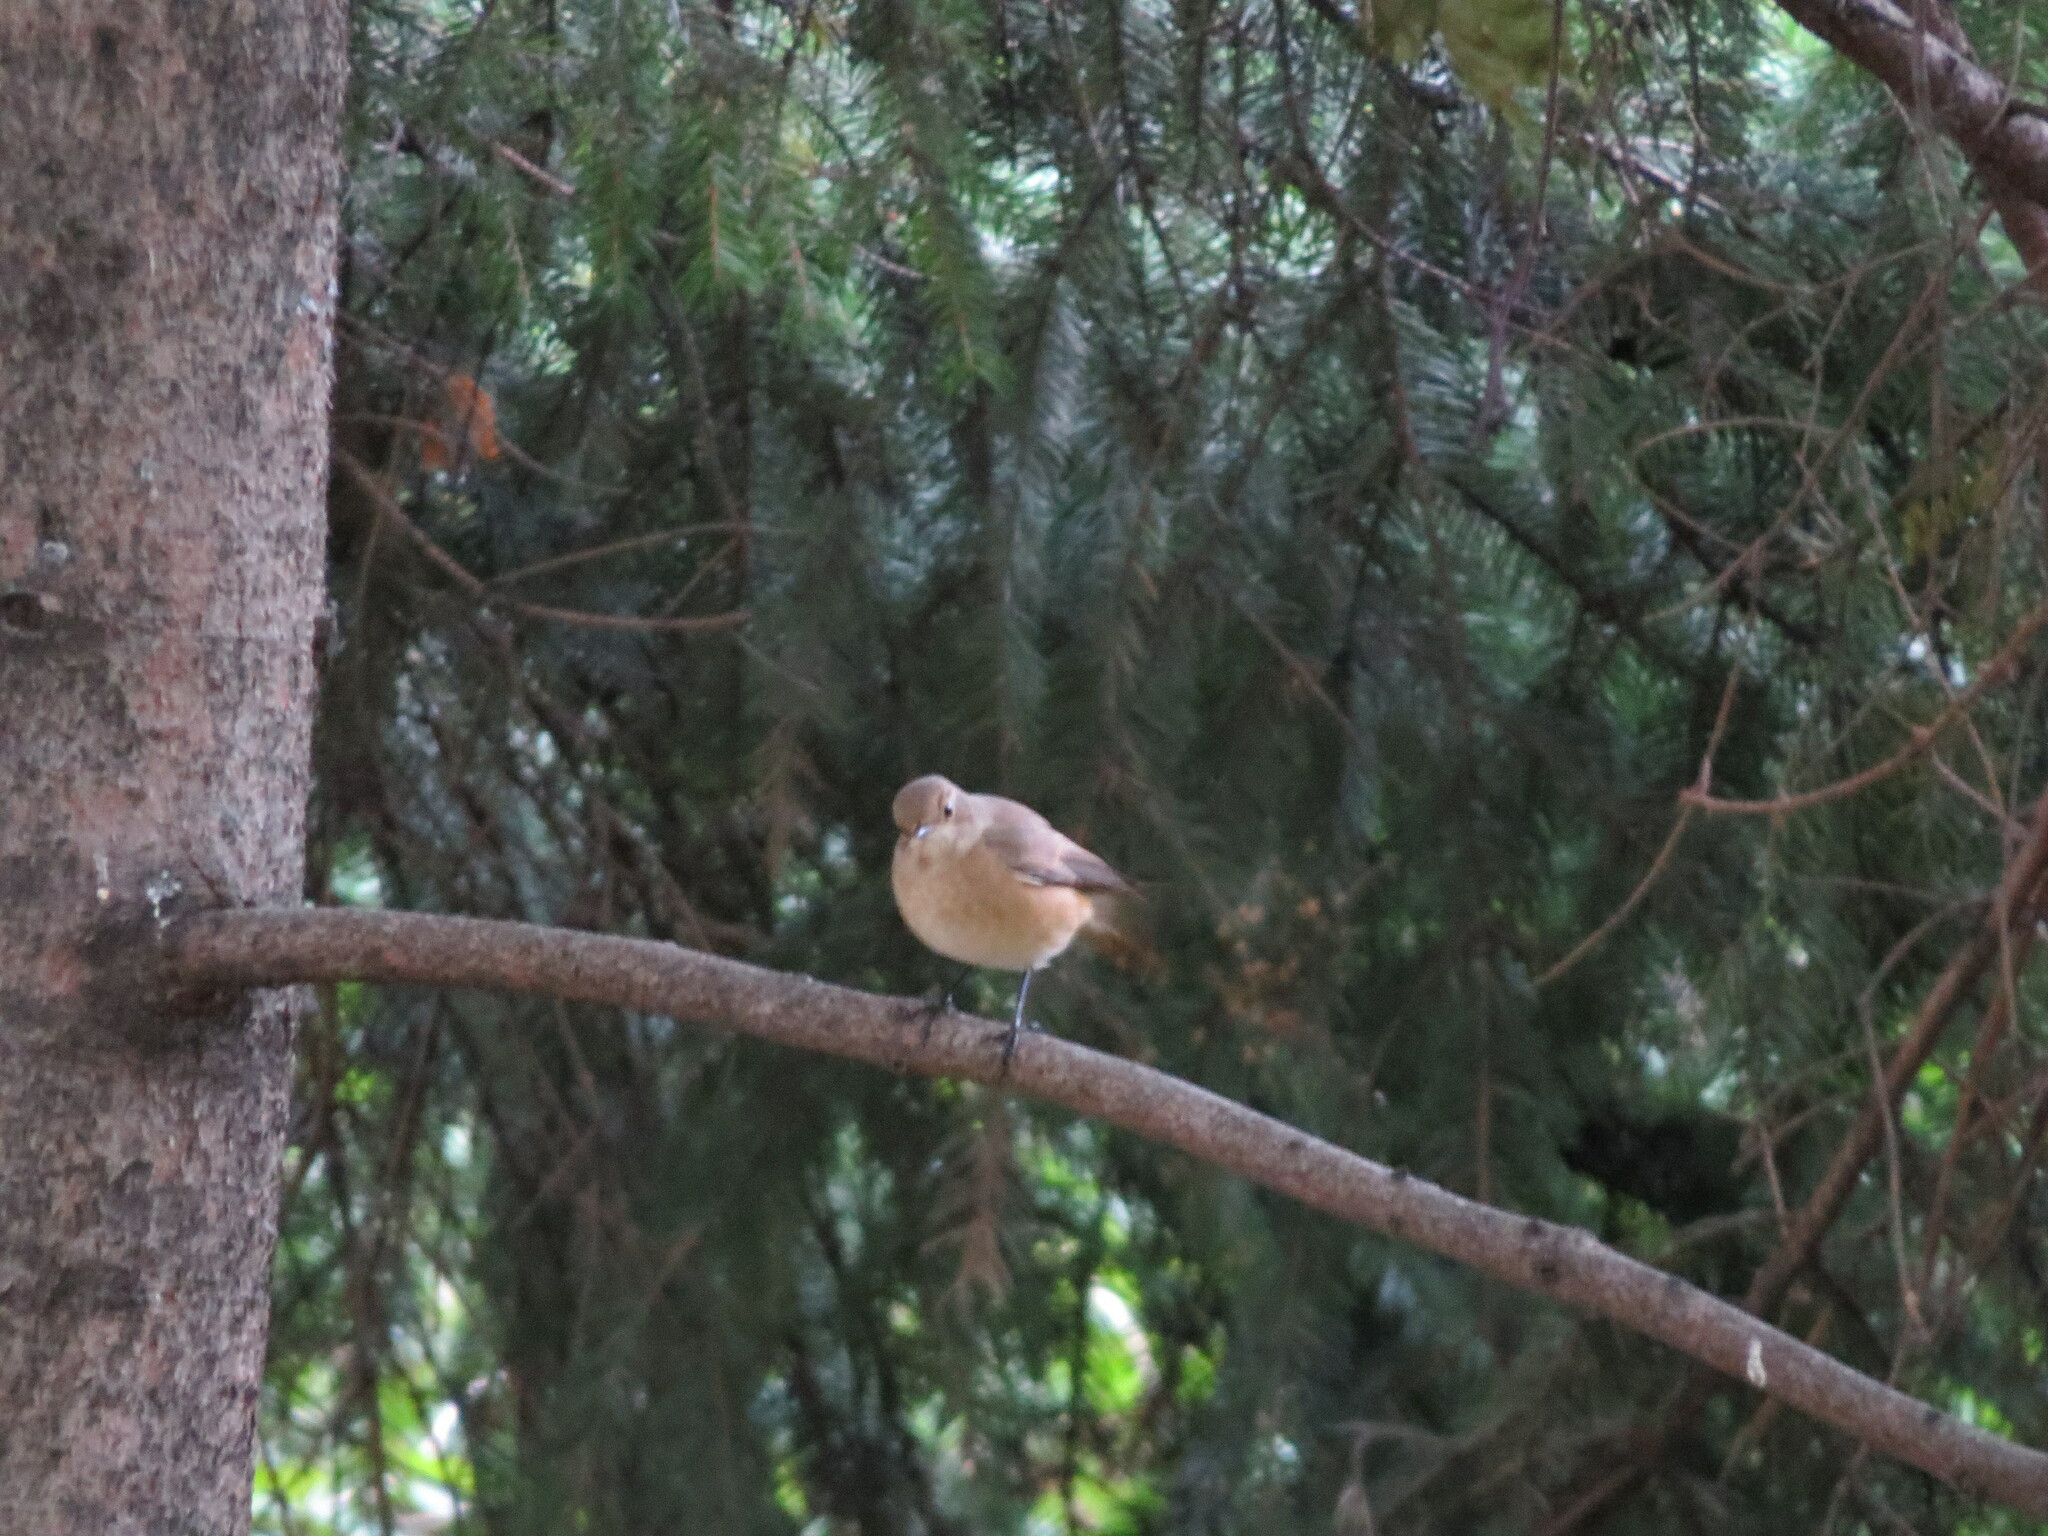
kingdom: Animalia
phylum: Chordata
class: Aves
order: Passeriformes
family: Muscicapidae
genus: Phoenicurus
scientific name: Phoenicurus phoenicurus
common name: Common redstart
